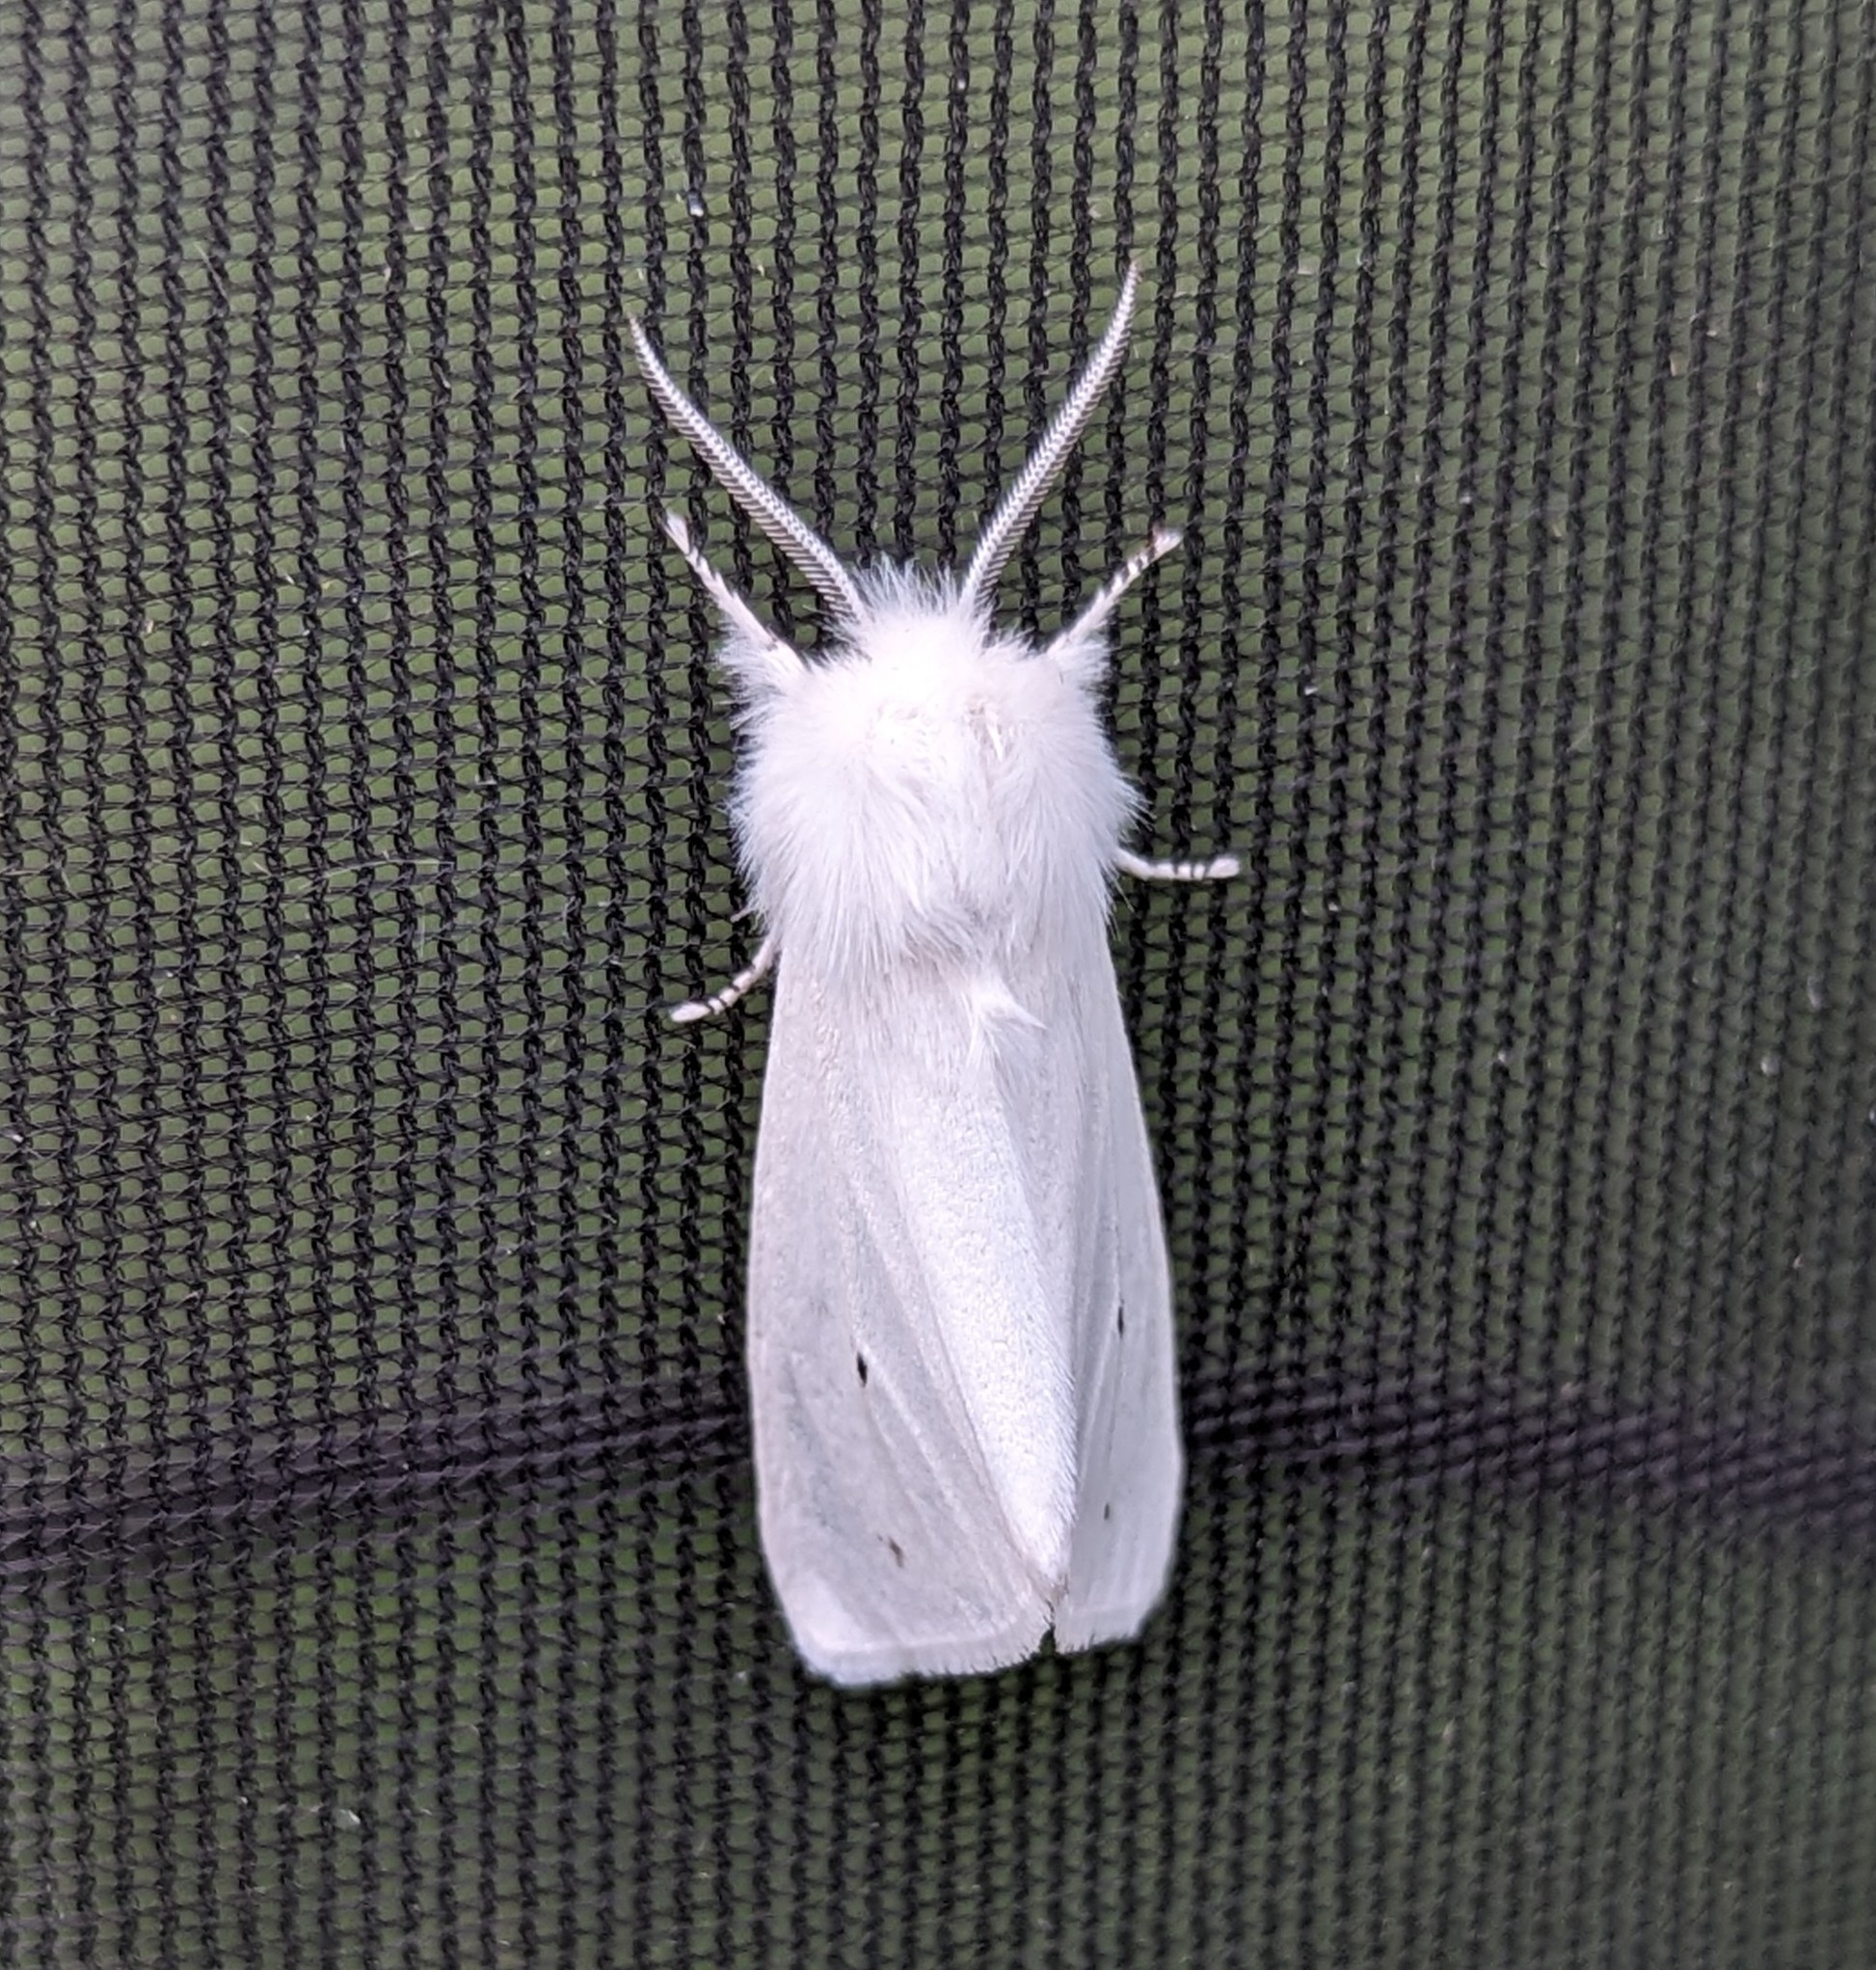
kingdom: Animalia
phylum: Arthropoda
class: Insecta
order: Lepidoptera
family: Erebidae
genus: Spilosoma
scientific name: Spilosoma virginica
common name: Virginia tiger moth
